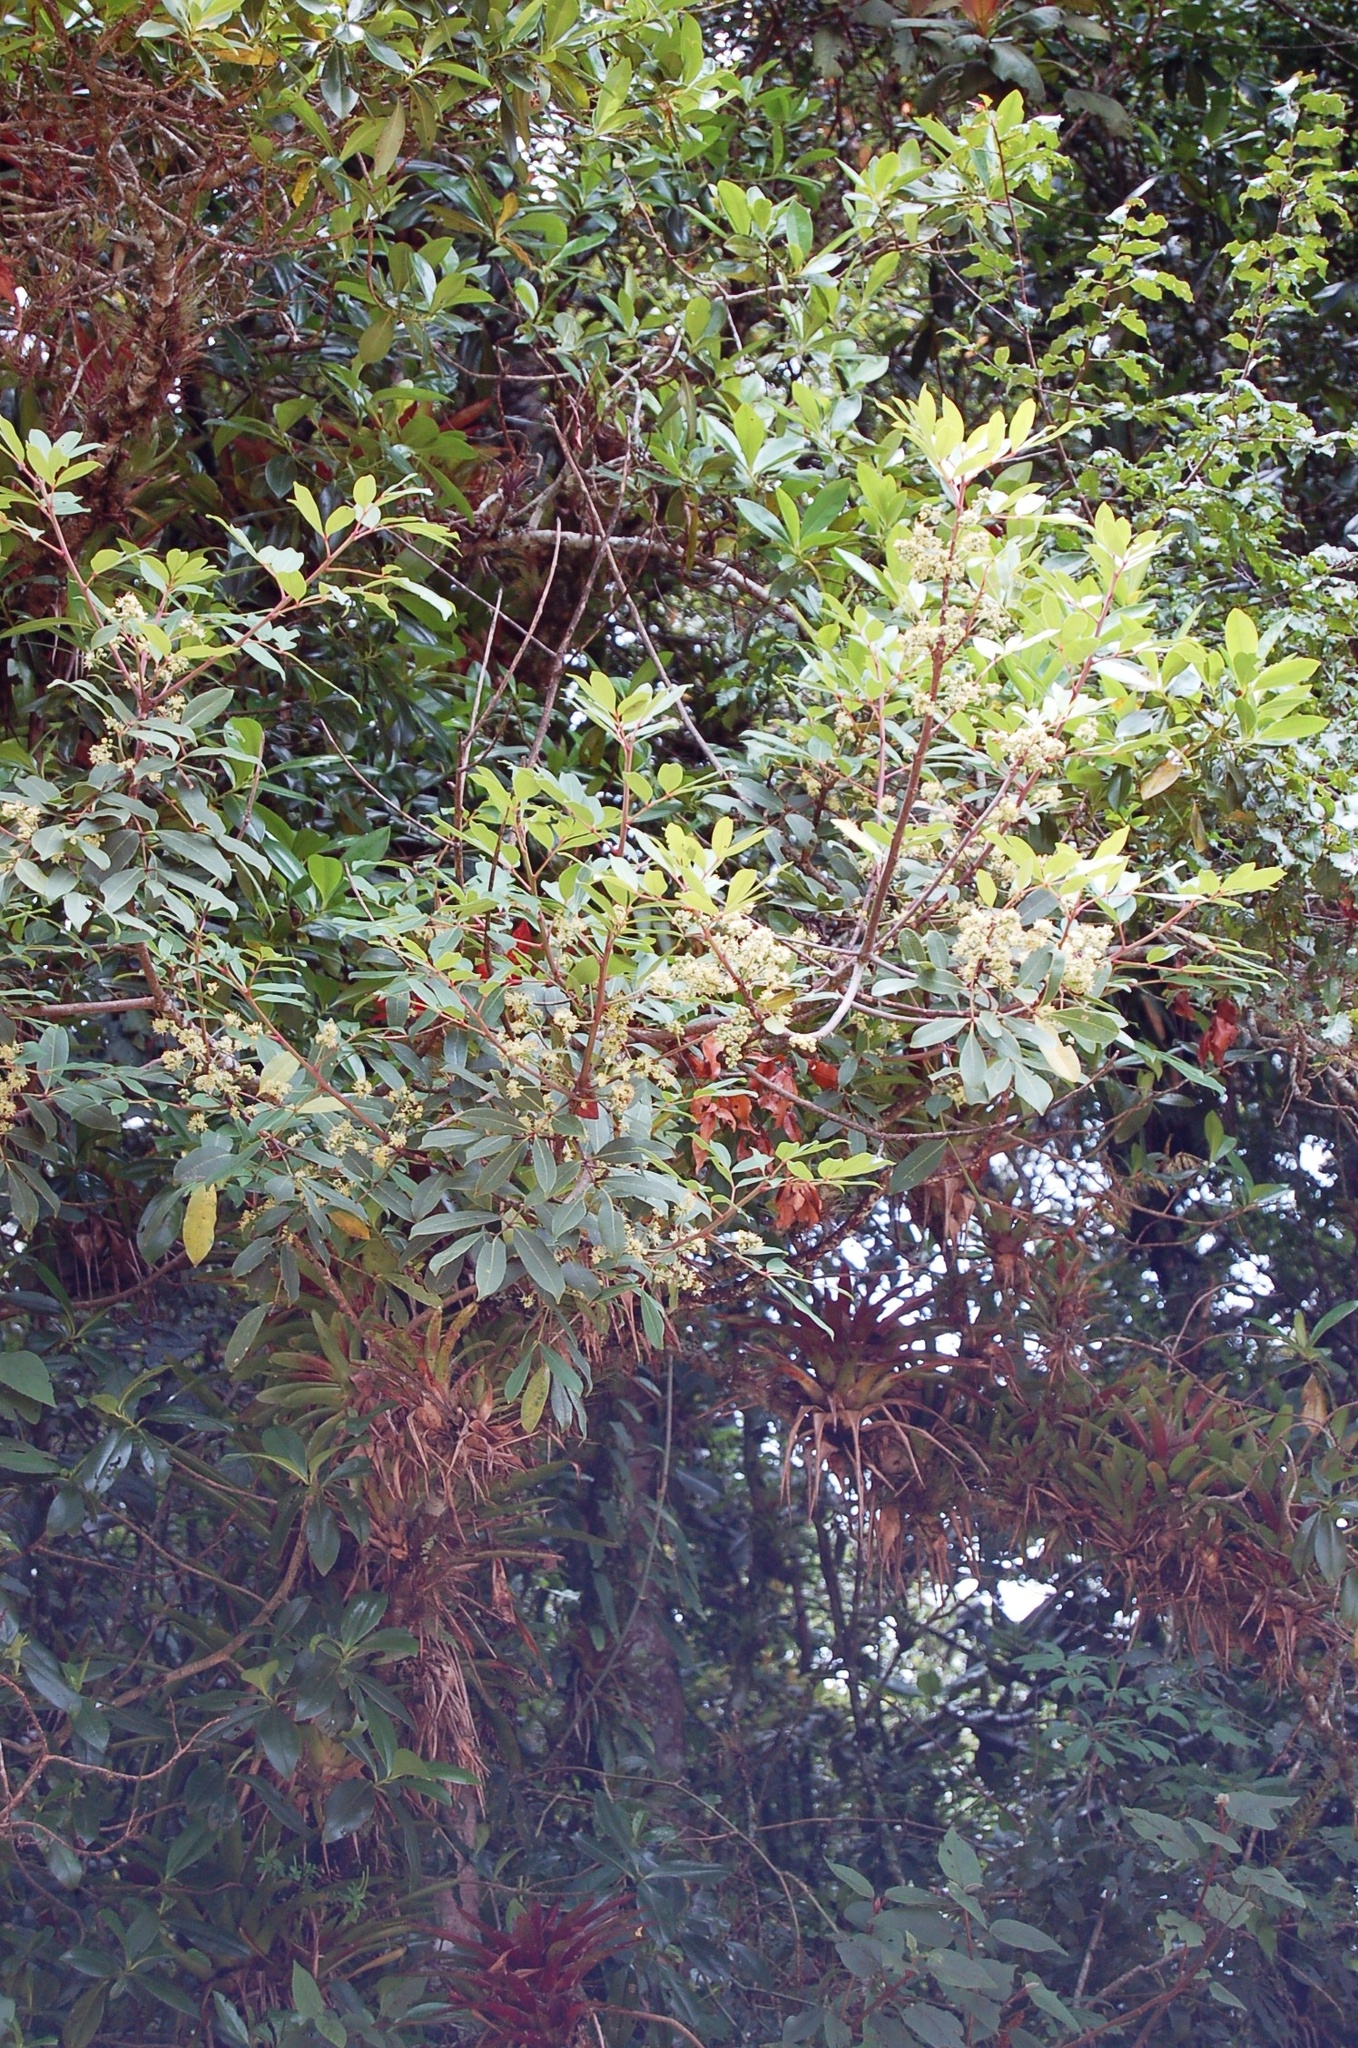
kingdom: Plantae
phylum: Tracheophyta
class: Magnoliopsida
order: Sapindales
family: Rutaceae
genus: Zanthoxylum
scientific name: Zanthoxylum melanostictum
